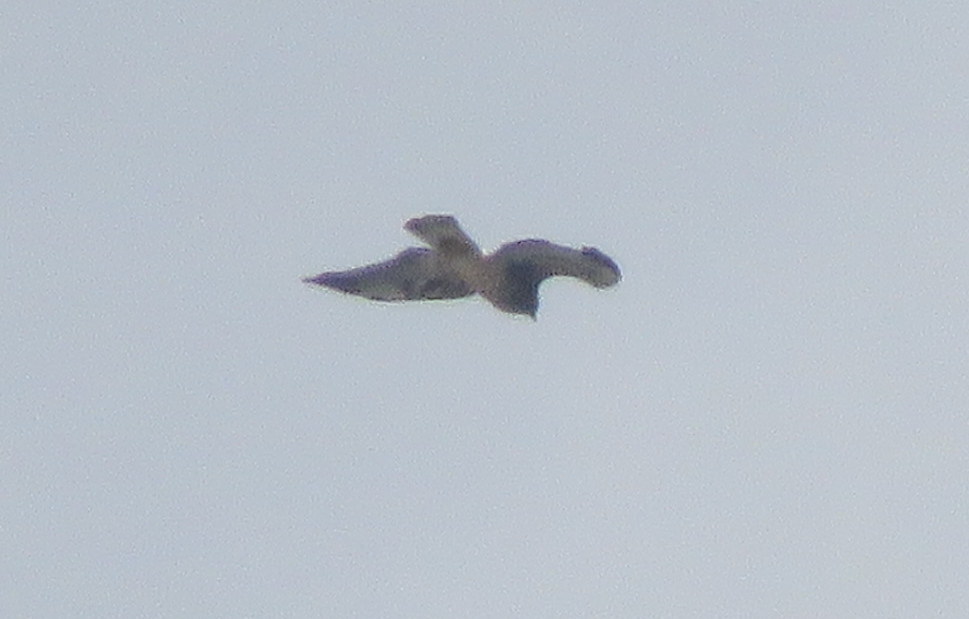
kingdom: Animalia
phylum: Chordata
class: Aves
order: Accipitriformes
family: Accipitridae
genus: Buteo
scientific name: Buteo albicaudatus
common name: White-tailed hawk
